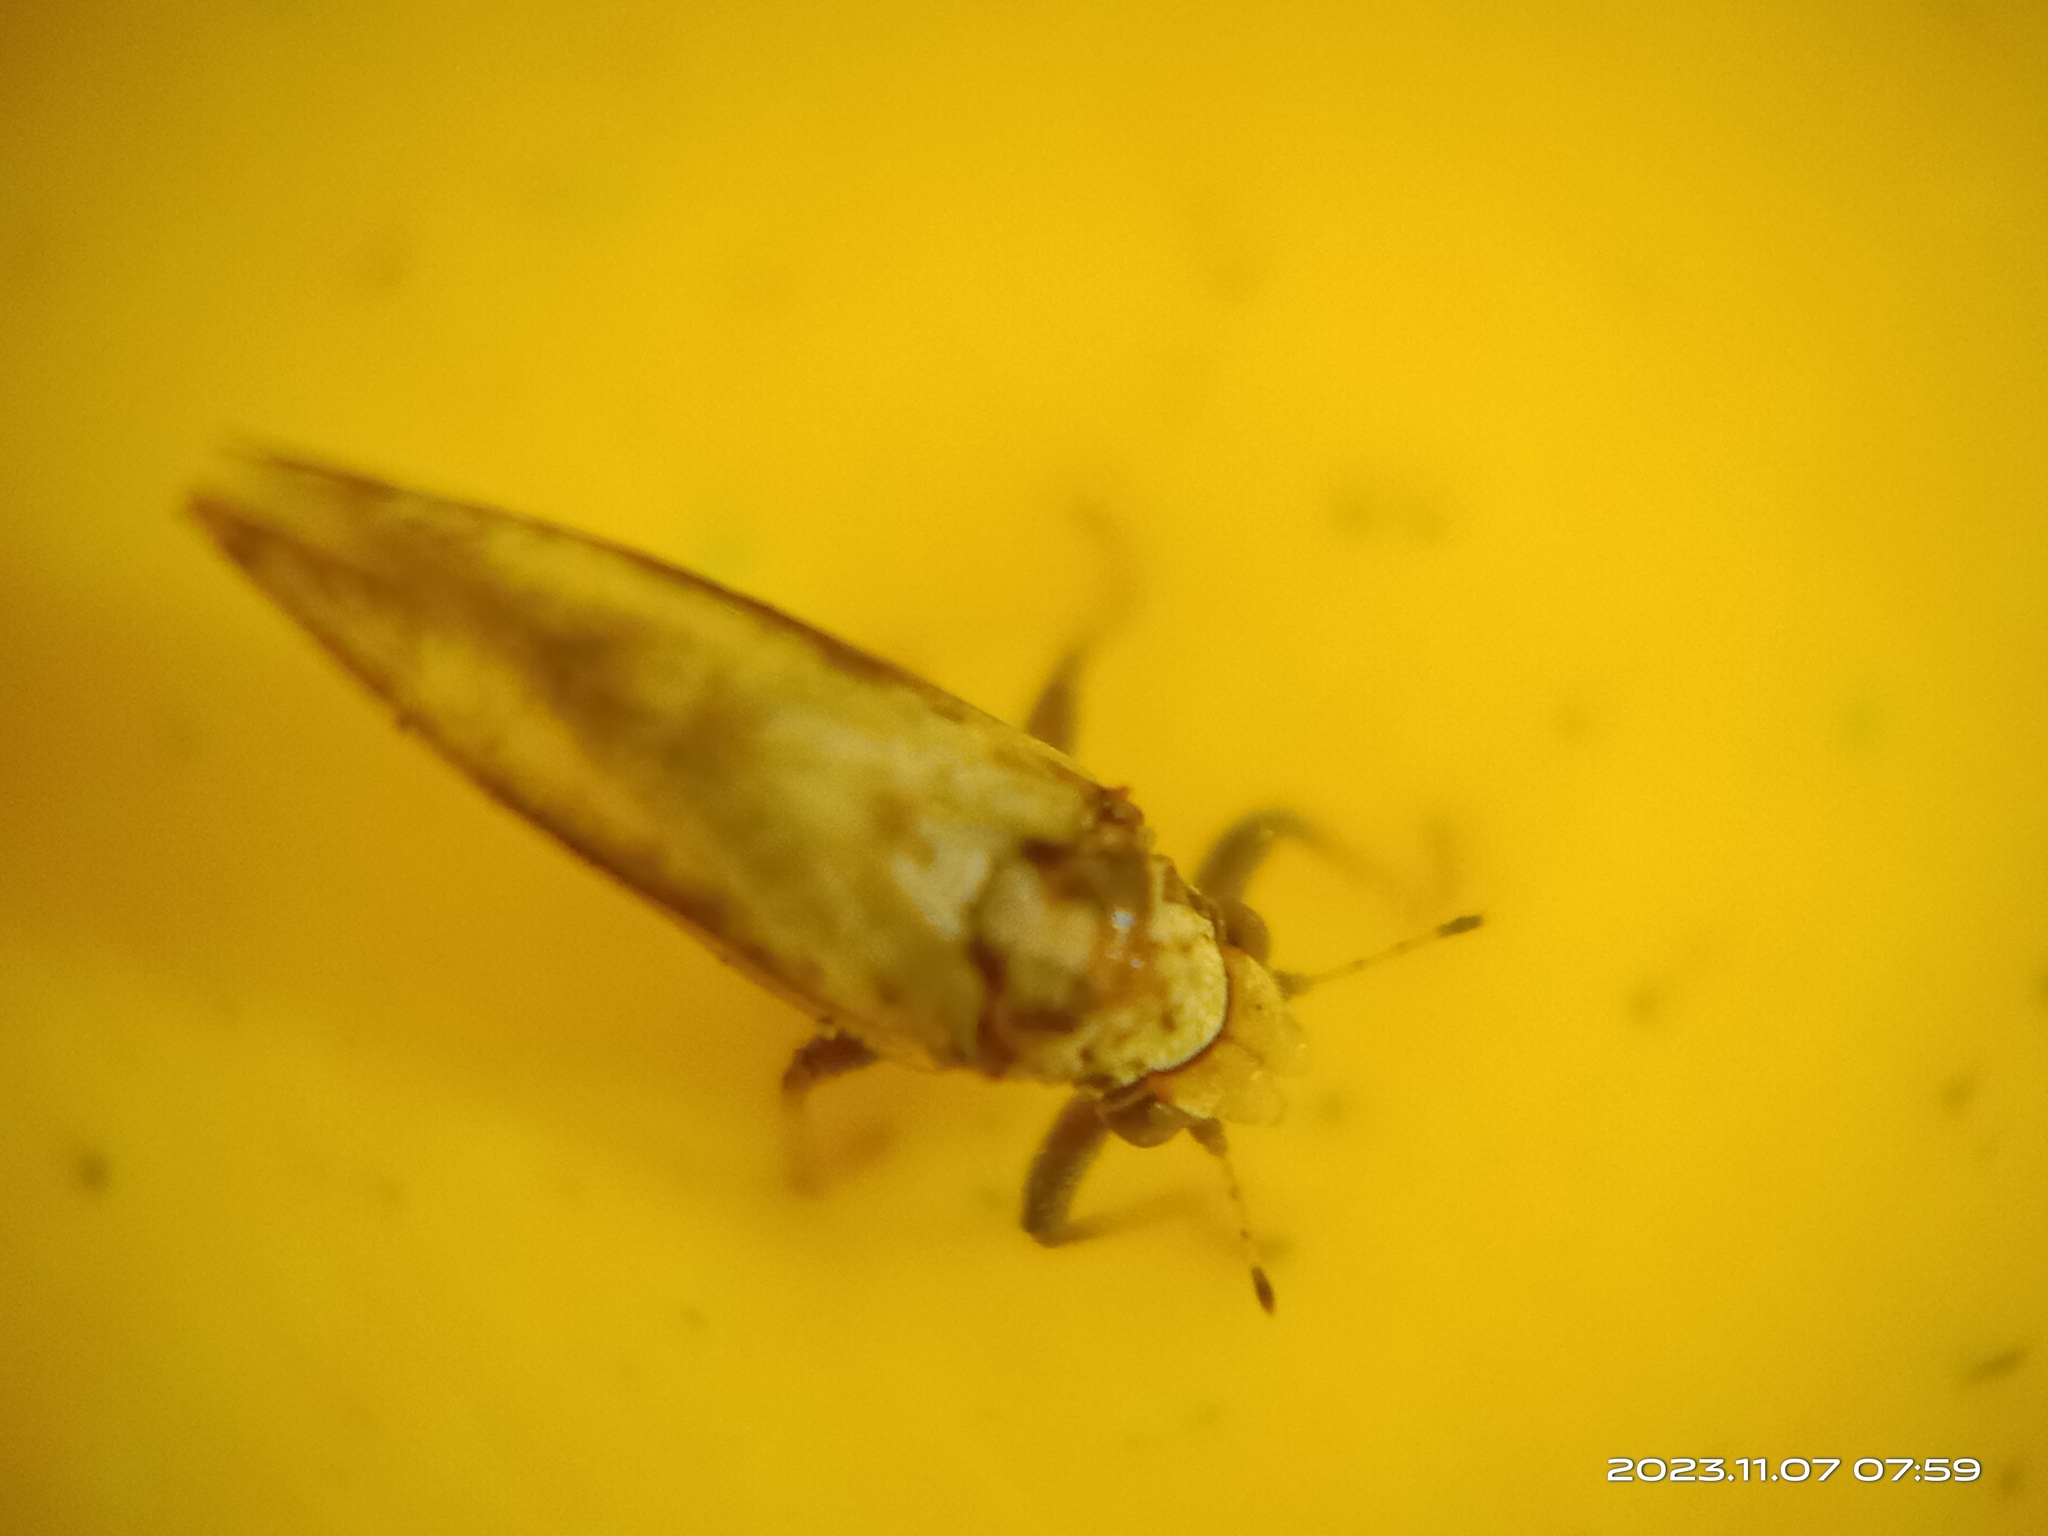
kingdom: Animalia
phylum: Arthropoda
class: Insecta
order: Hemiptera
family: Liviidae
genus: Diaphorina
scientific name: Diaphorina citri
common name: Asian citrus psyllid
